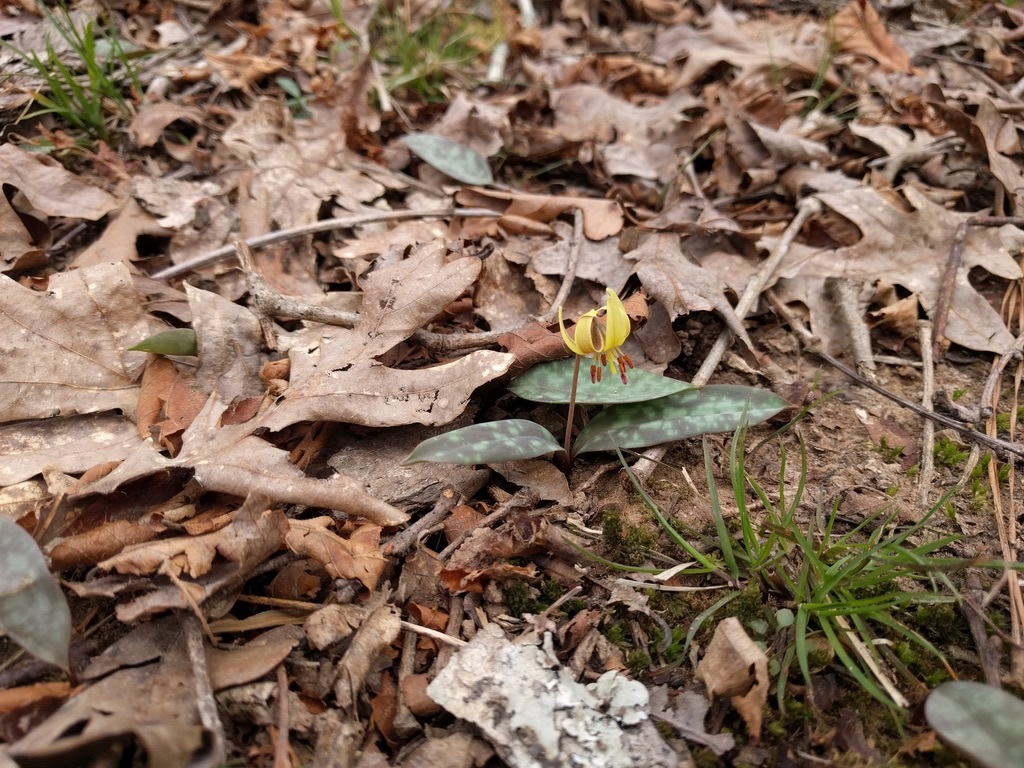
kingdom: Plantae
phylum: Tracheophyta
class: Liliopsida
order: Liliales
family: Liliaceae
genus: Erythronium
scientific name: Erythronium umbilicatum
